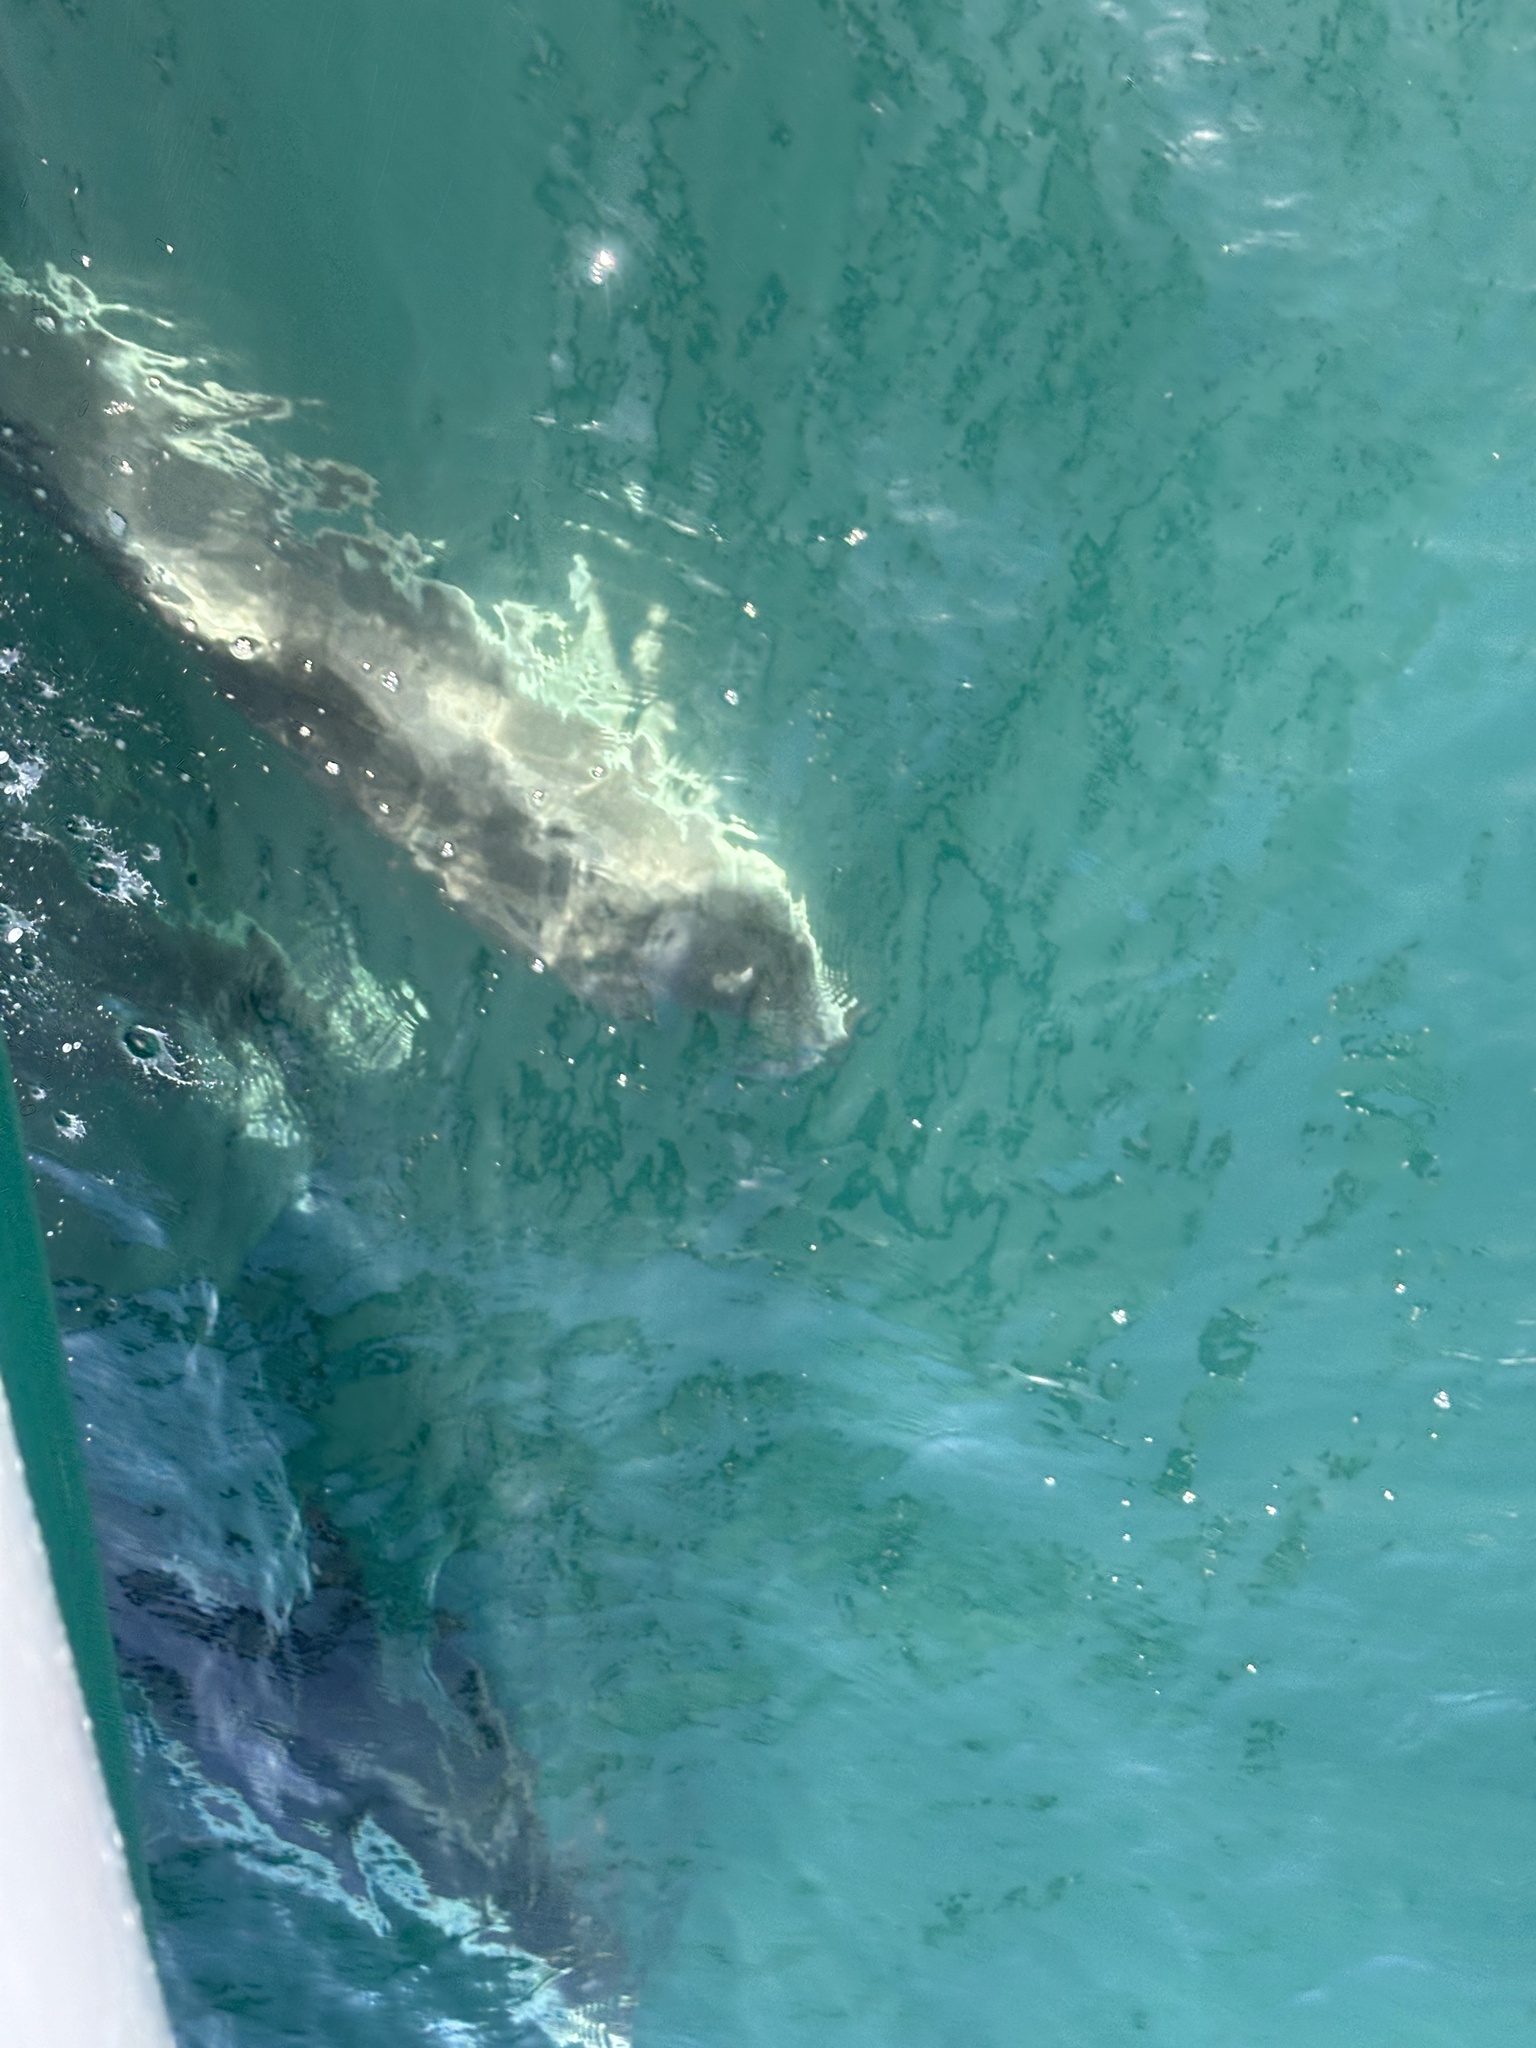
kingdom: Animalia
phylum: Chordata
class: Mammalia
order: Cetacea
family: Delphinidae
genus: Lagenorhynchus
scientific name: Lagenorhynchus obliquidens
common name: Pacific white-sided dolphin
